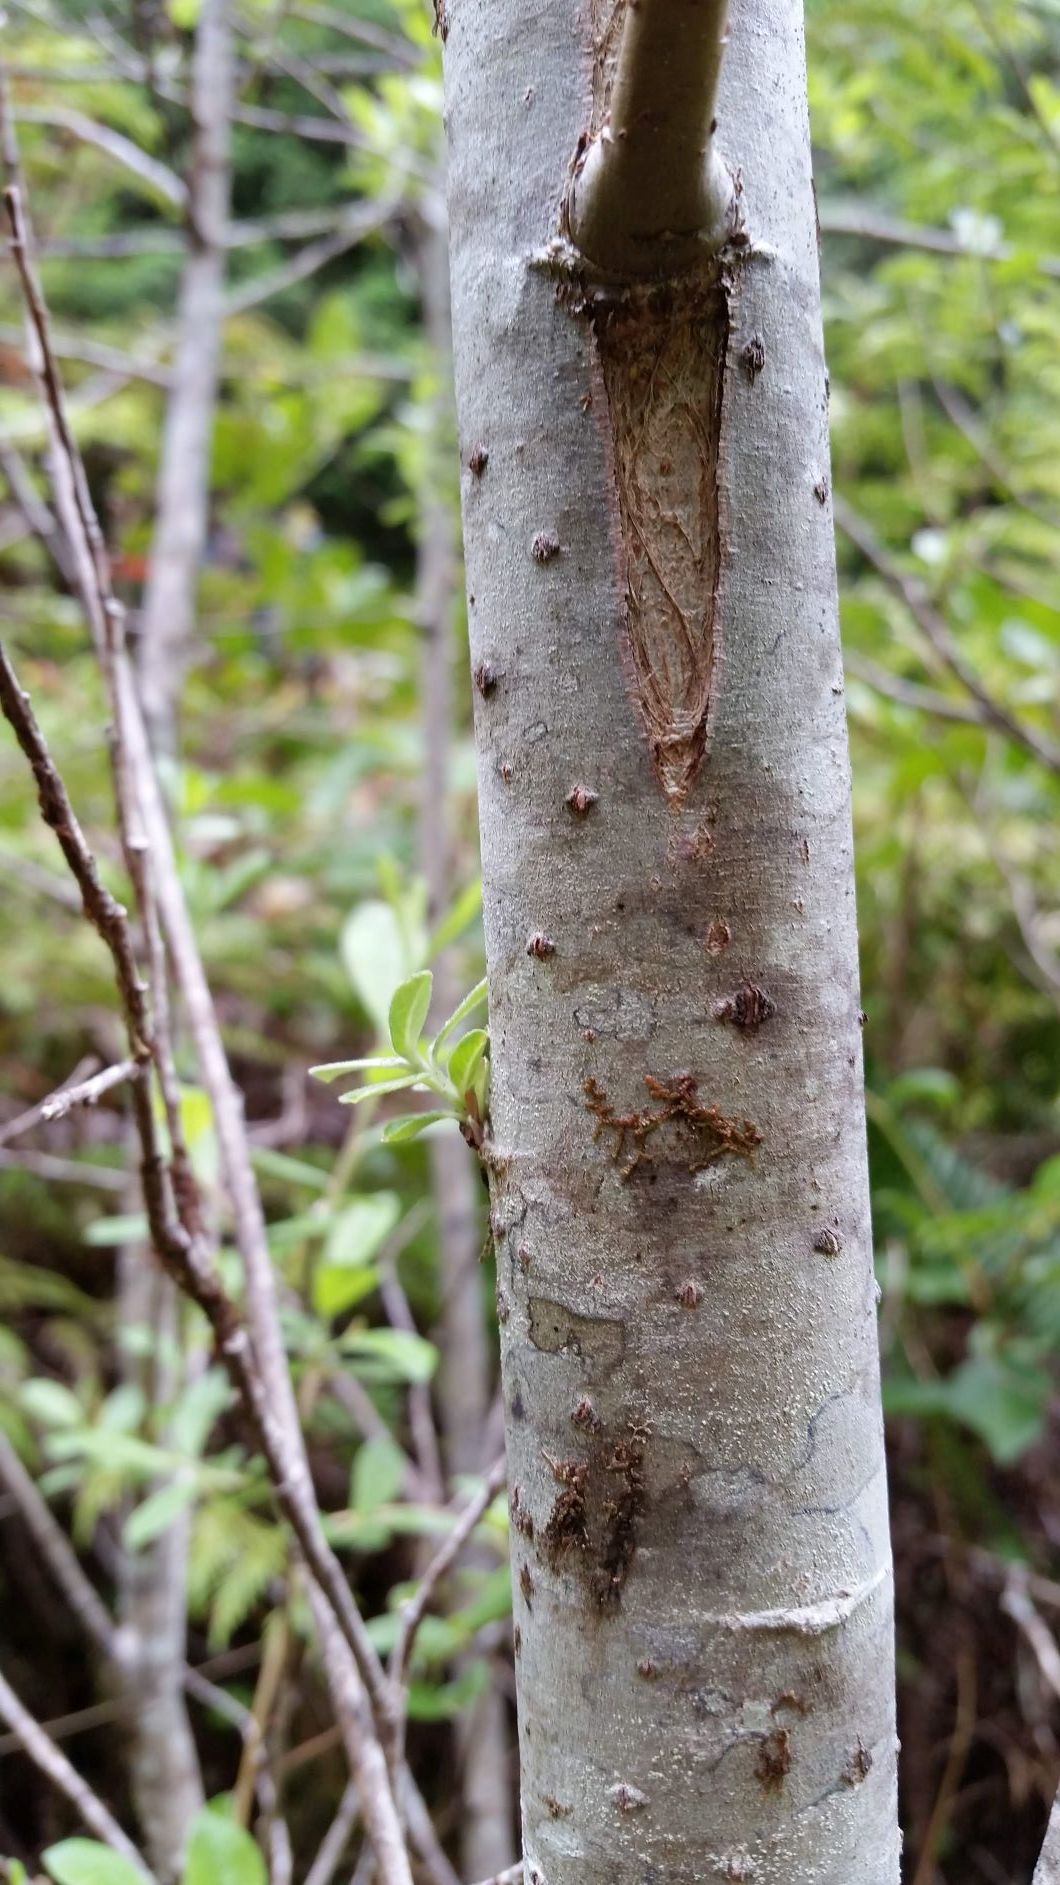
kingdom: Plantae
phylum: Tracheophyta
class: Magnoliopsida
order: Fagales
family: Betulaceae
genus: Alnus
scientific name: Alnus rubra
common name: Red alder
